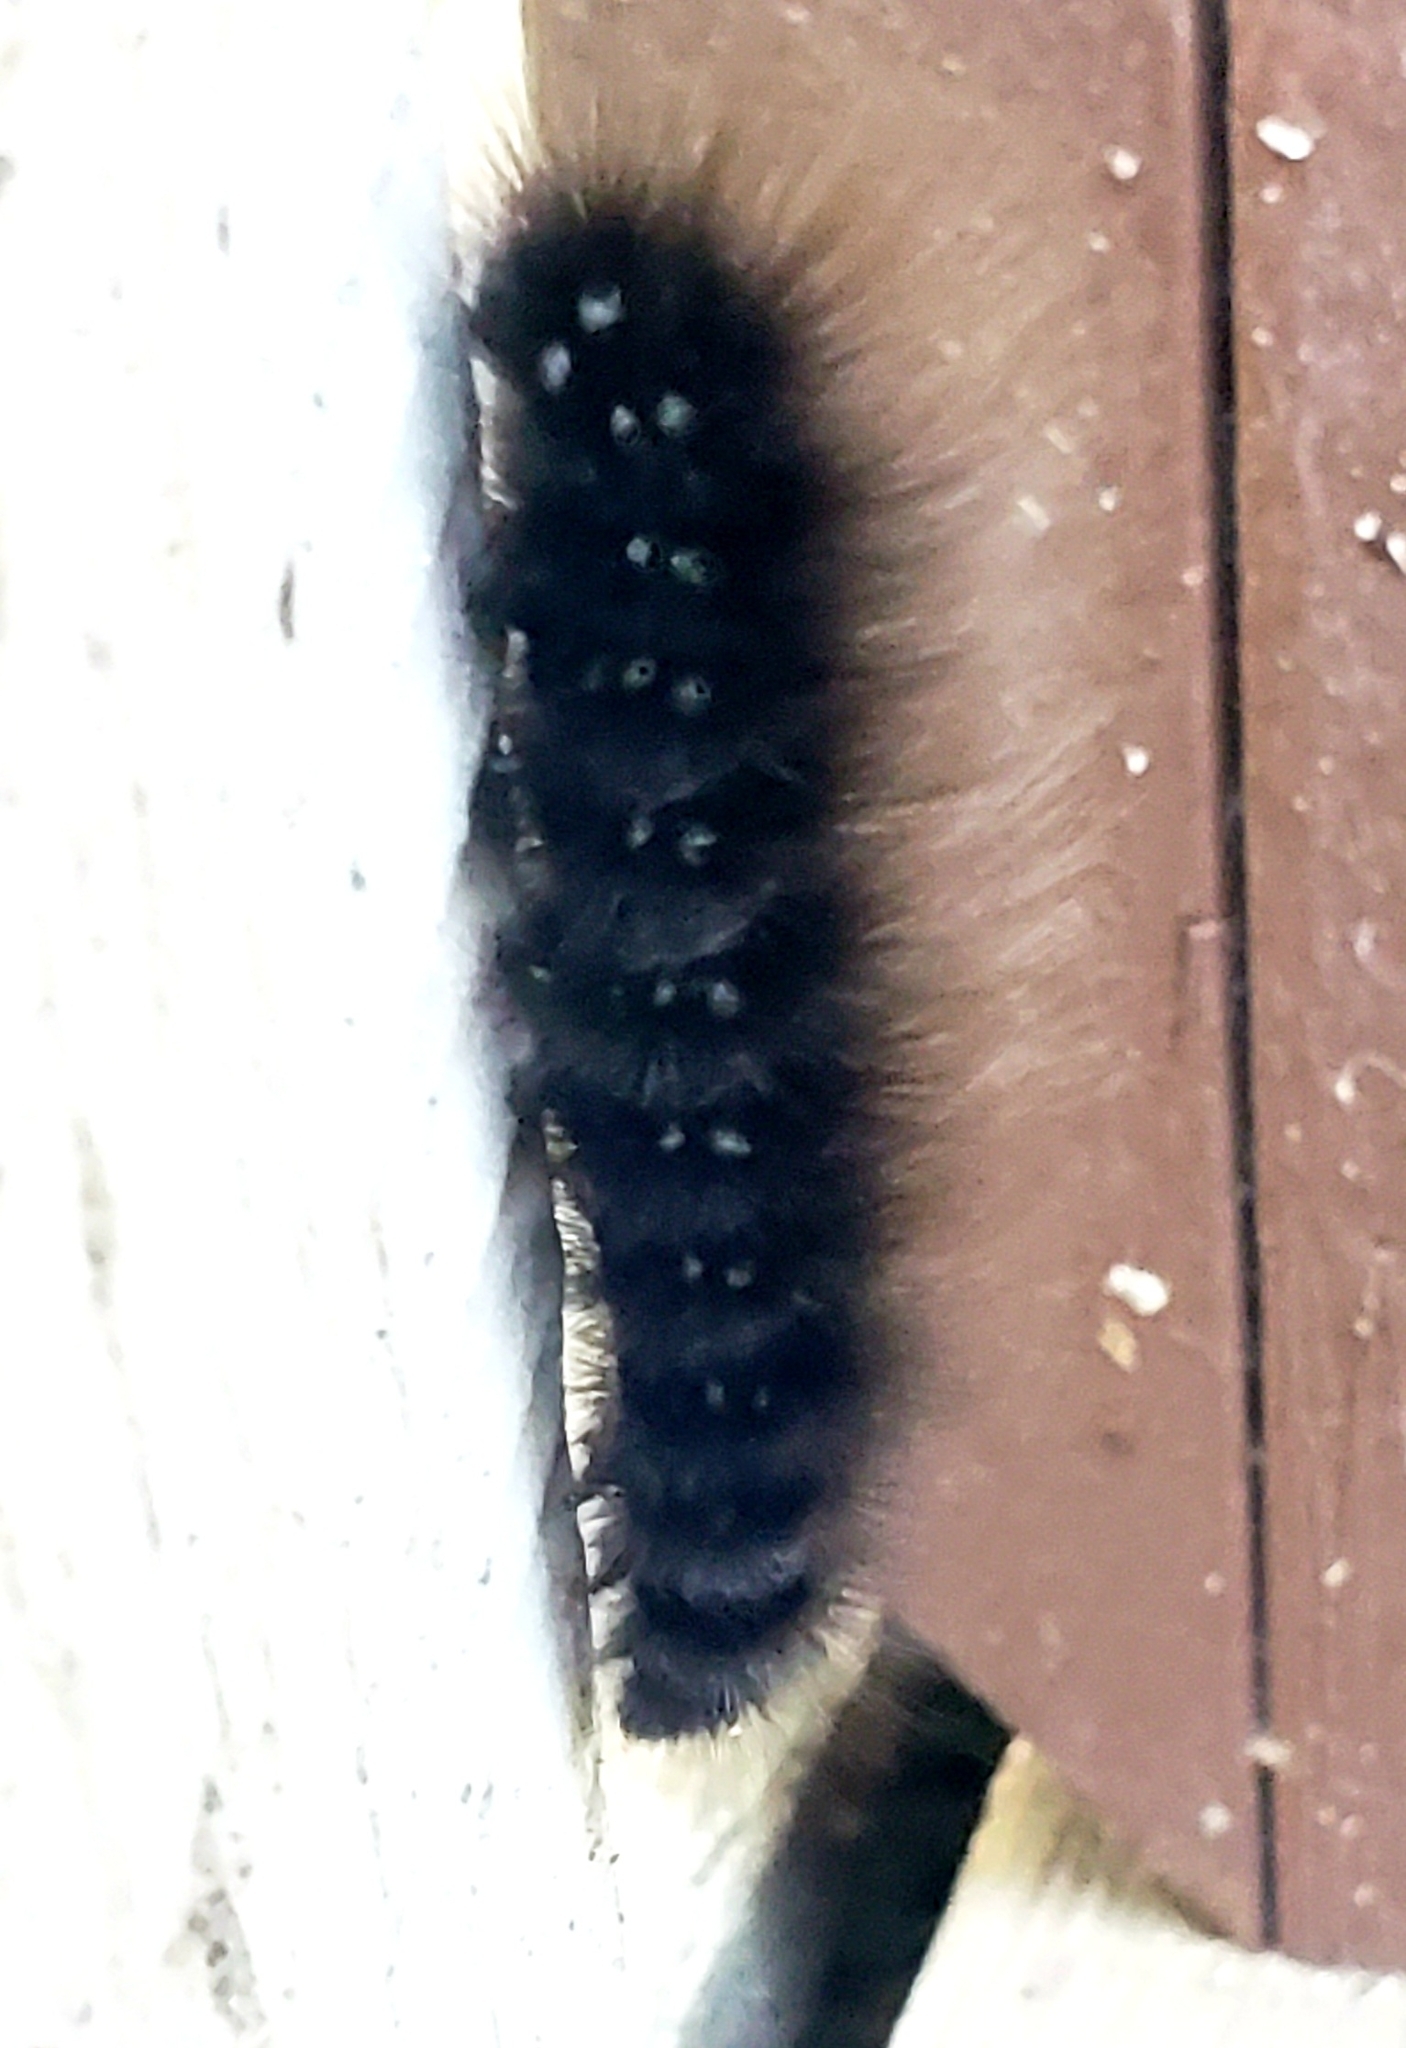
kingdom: Animalia
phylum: Arthropoda
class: Insecta
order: Lepidoptera
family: Erebidae
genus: Arctia
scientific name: Arctia parthenos
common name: St. lawrence tiger moth
